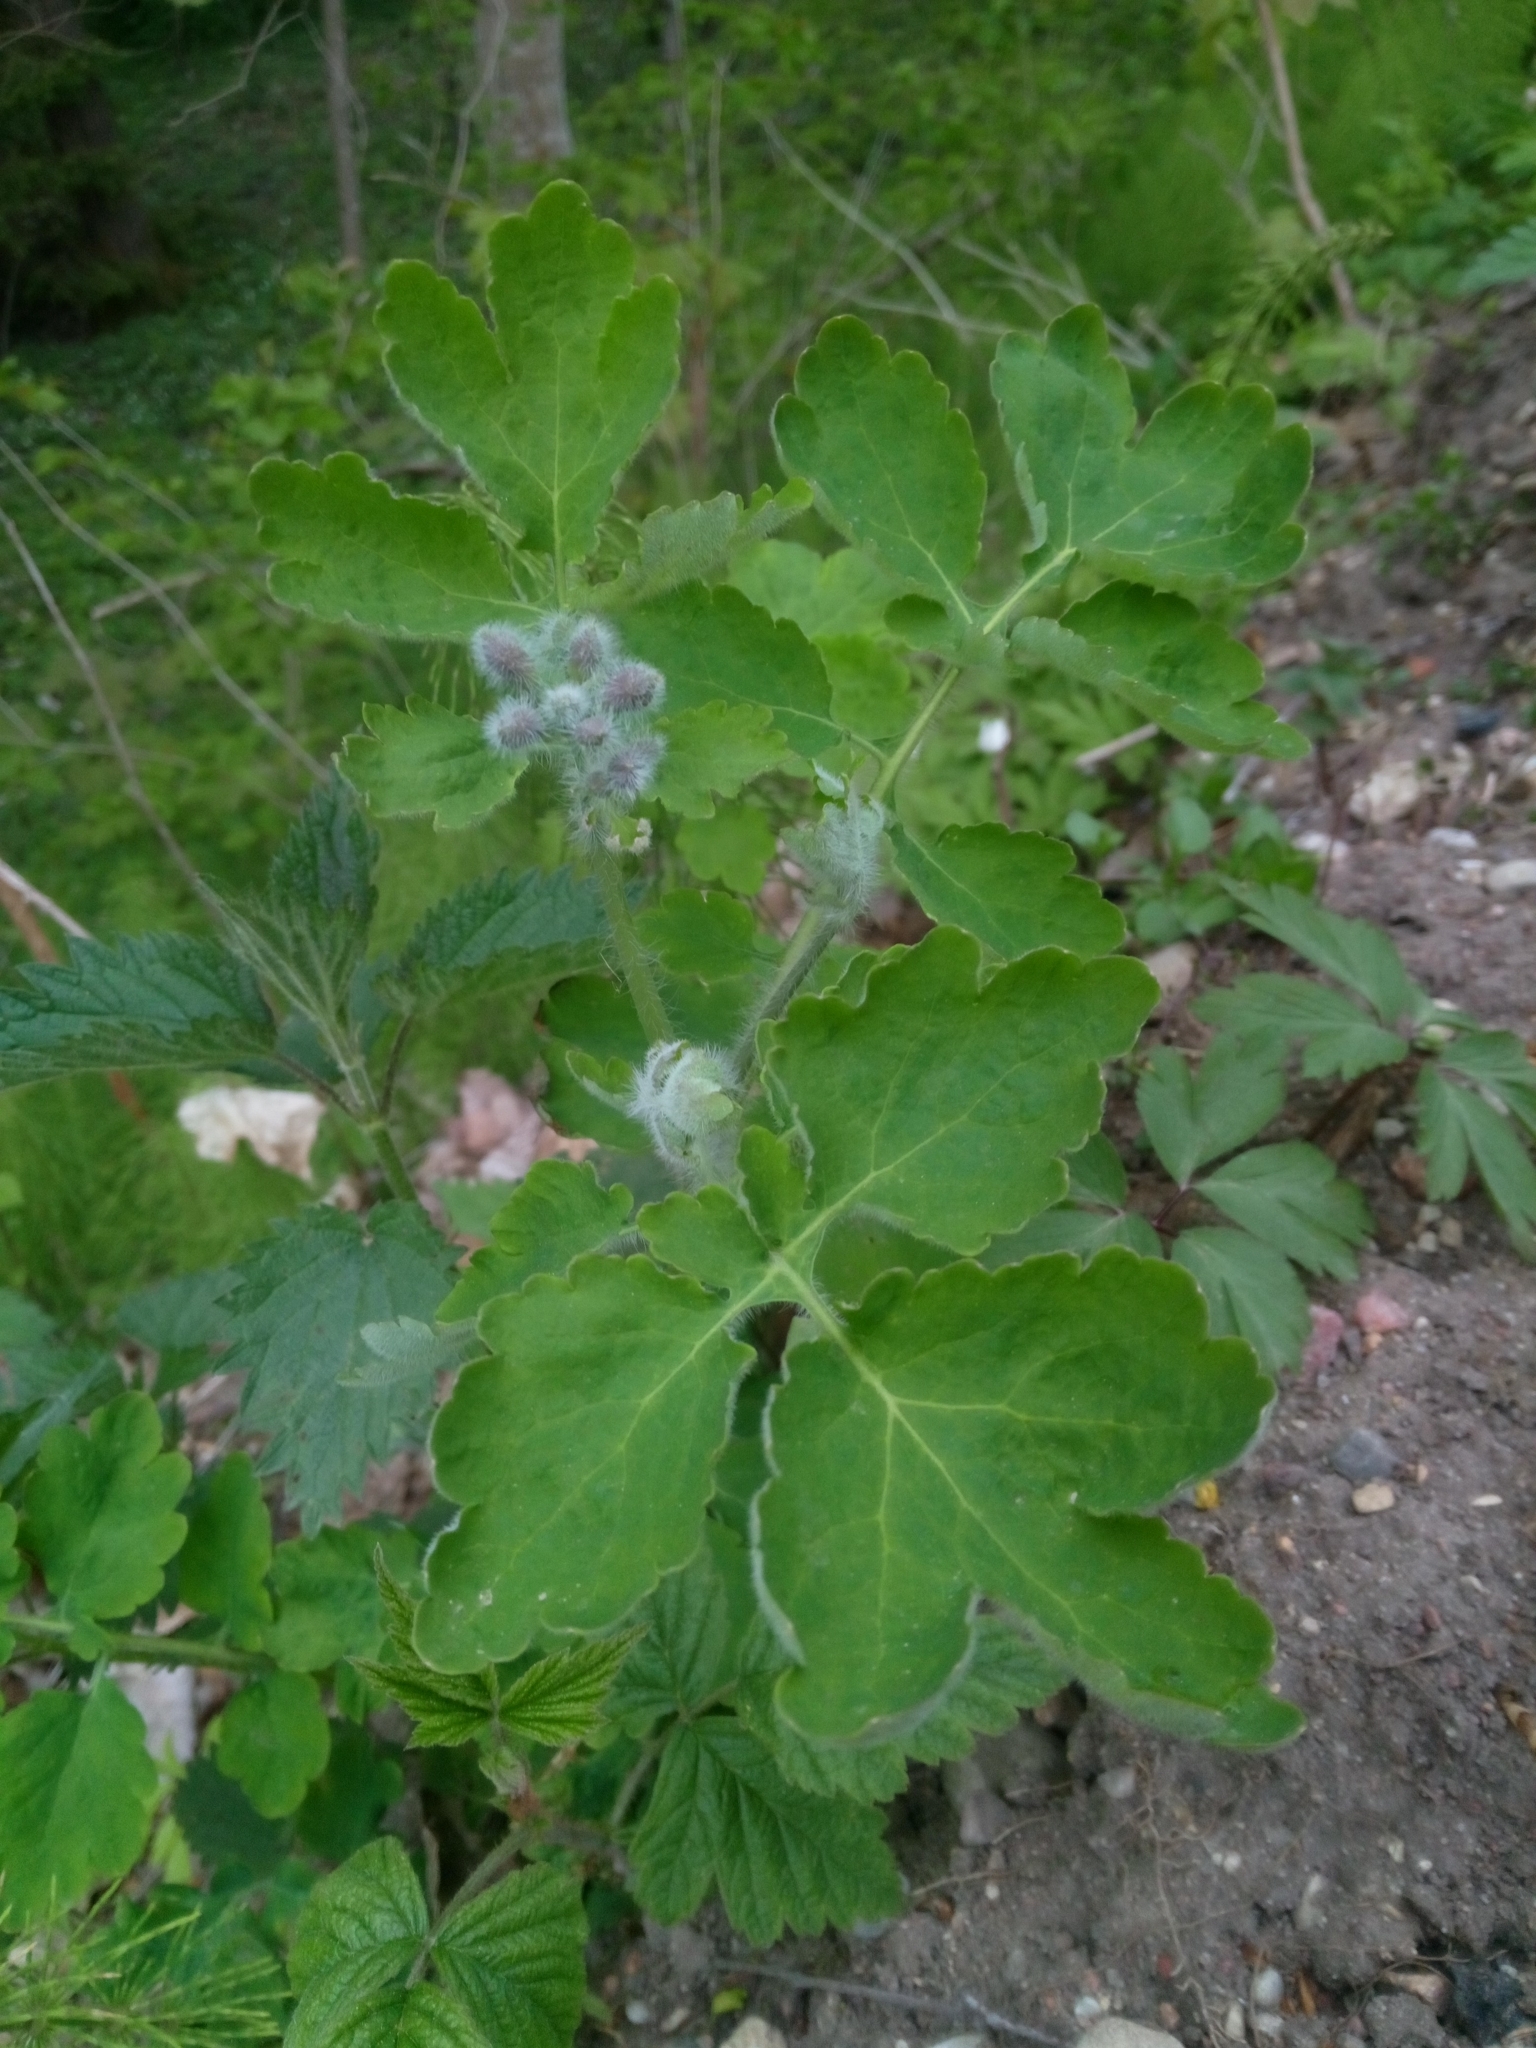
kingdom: Plantae
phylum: Tracheophyta
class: Magnoliopsida
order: Ranunculales
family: Papaveraceae
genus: Chelidonium
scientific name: Chelidonium majus
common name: Greater celandine
